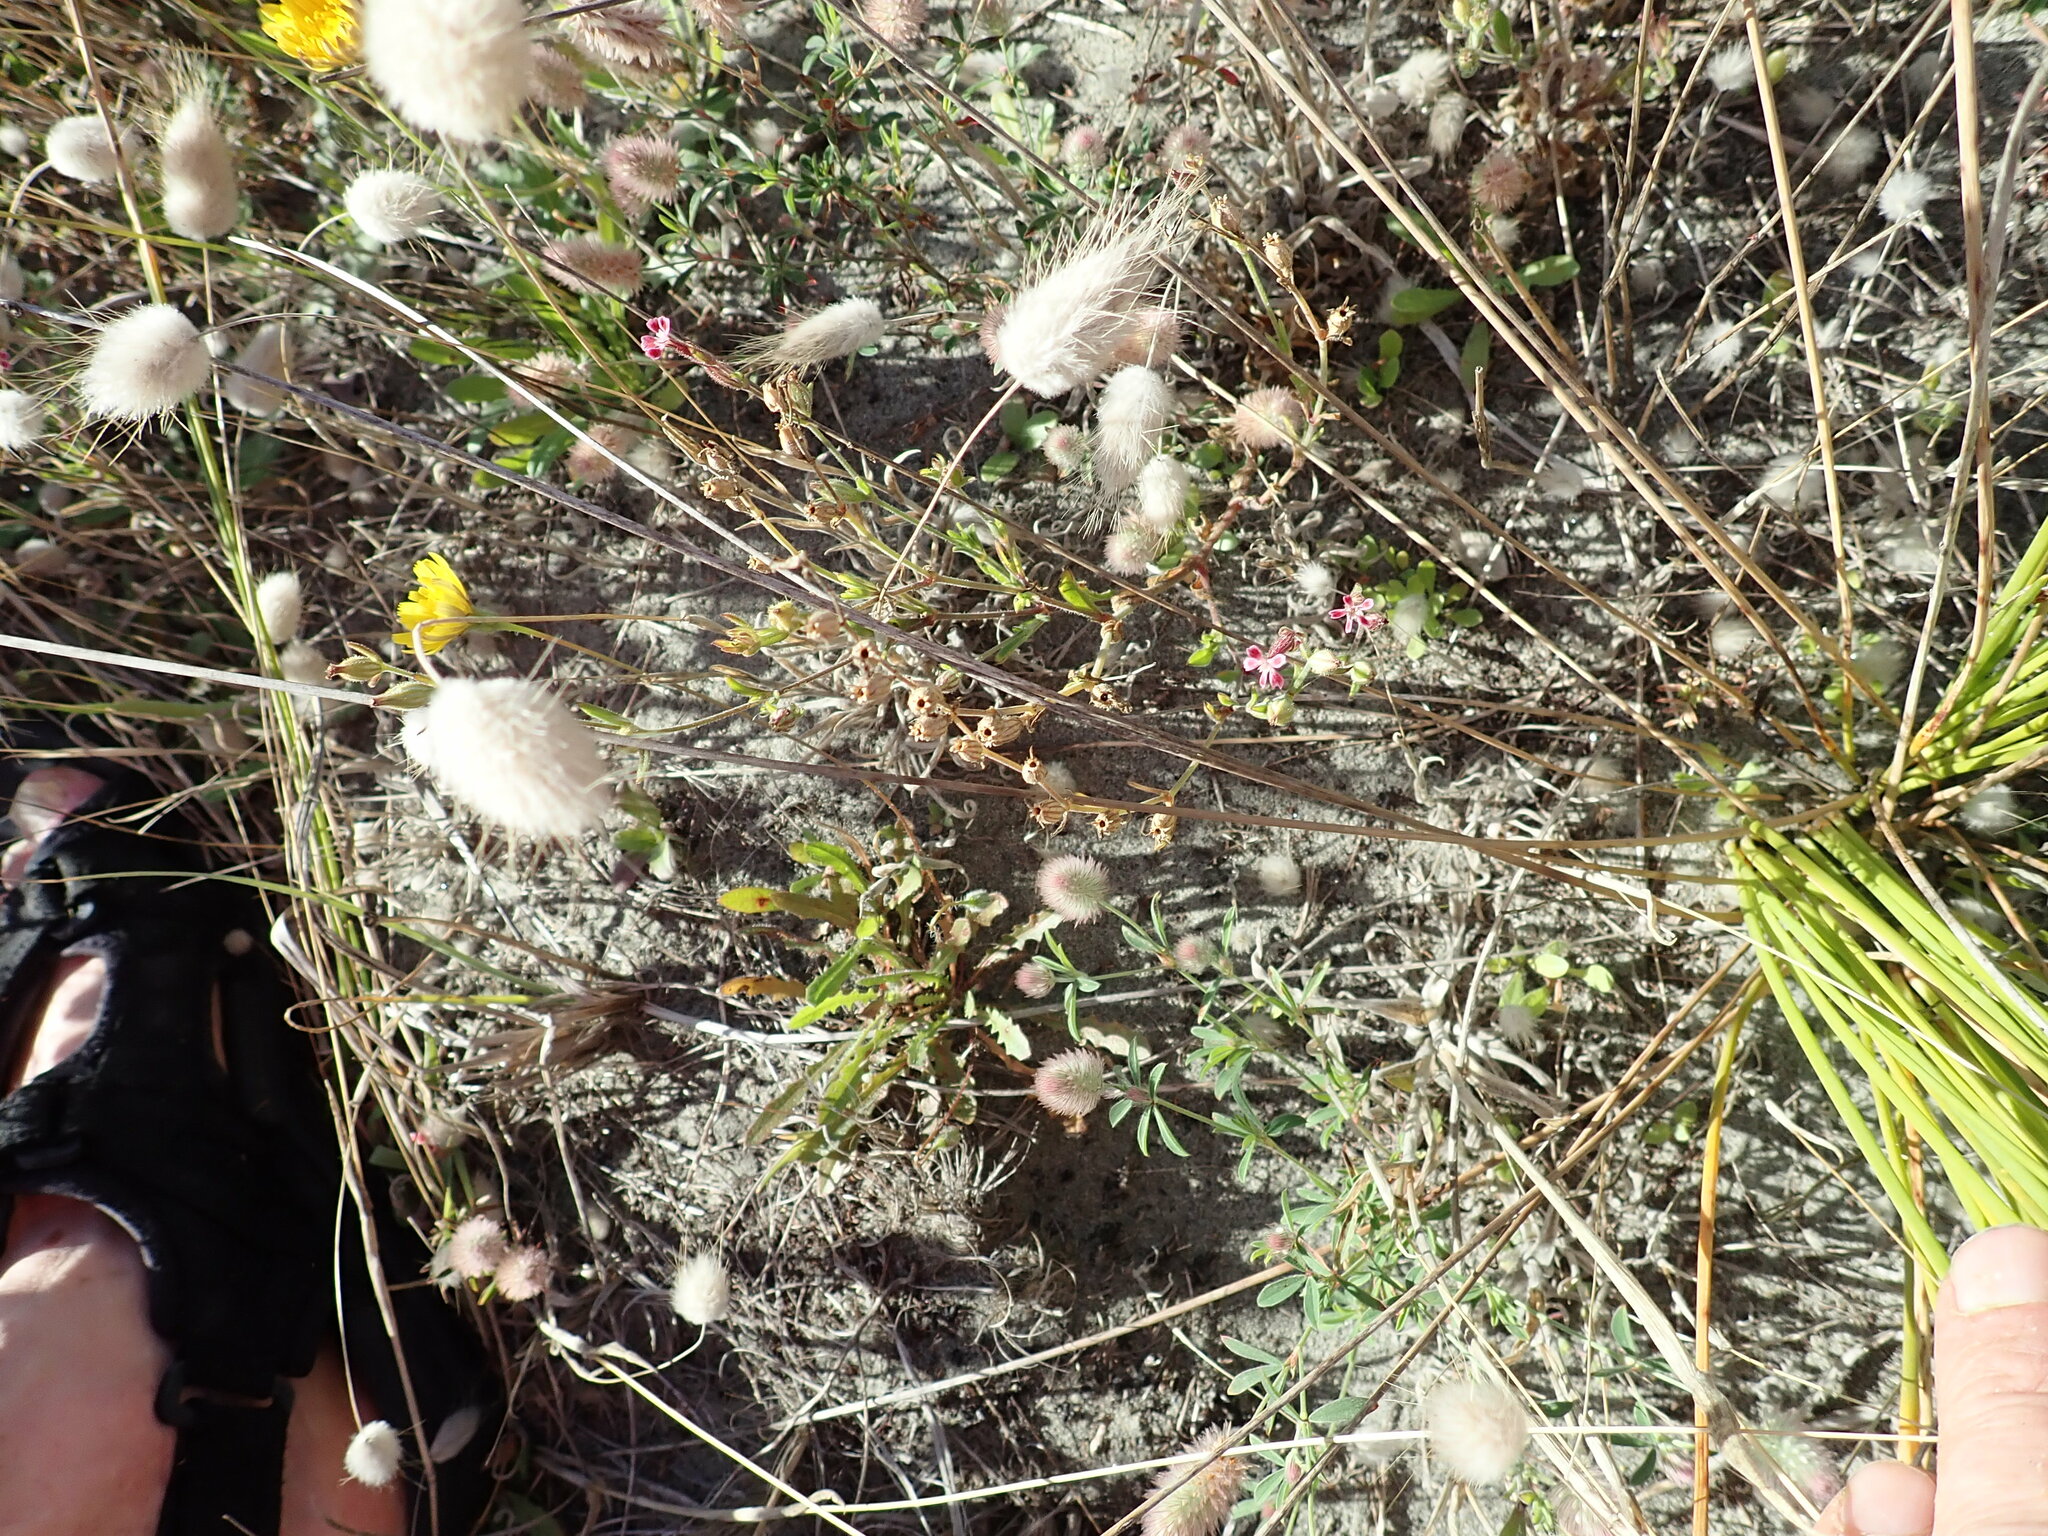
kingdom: Plantae
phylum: Tracheophyta
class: Liliopsida
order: Poales
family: Poaceae
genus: Lagurus
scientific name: Lagurus ovatus
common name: Hare's-tail
